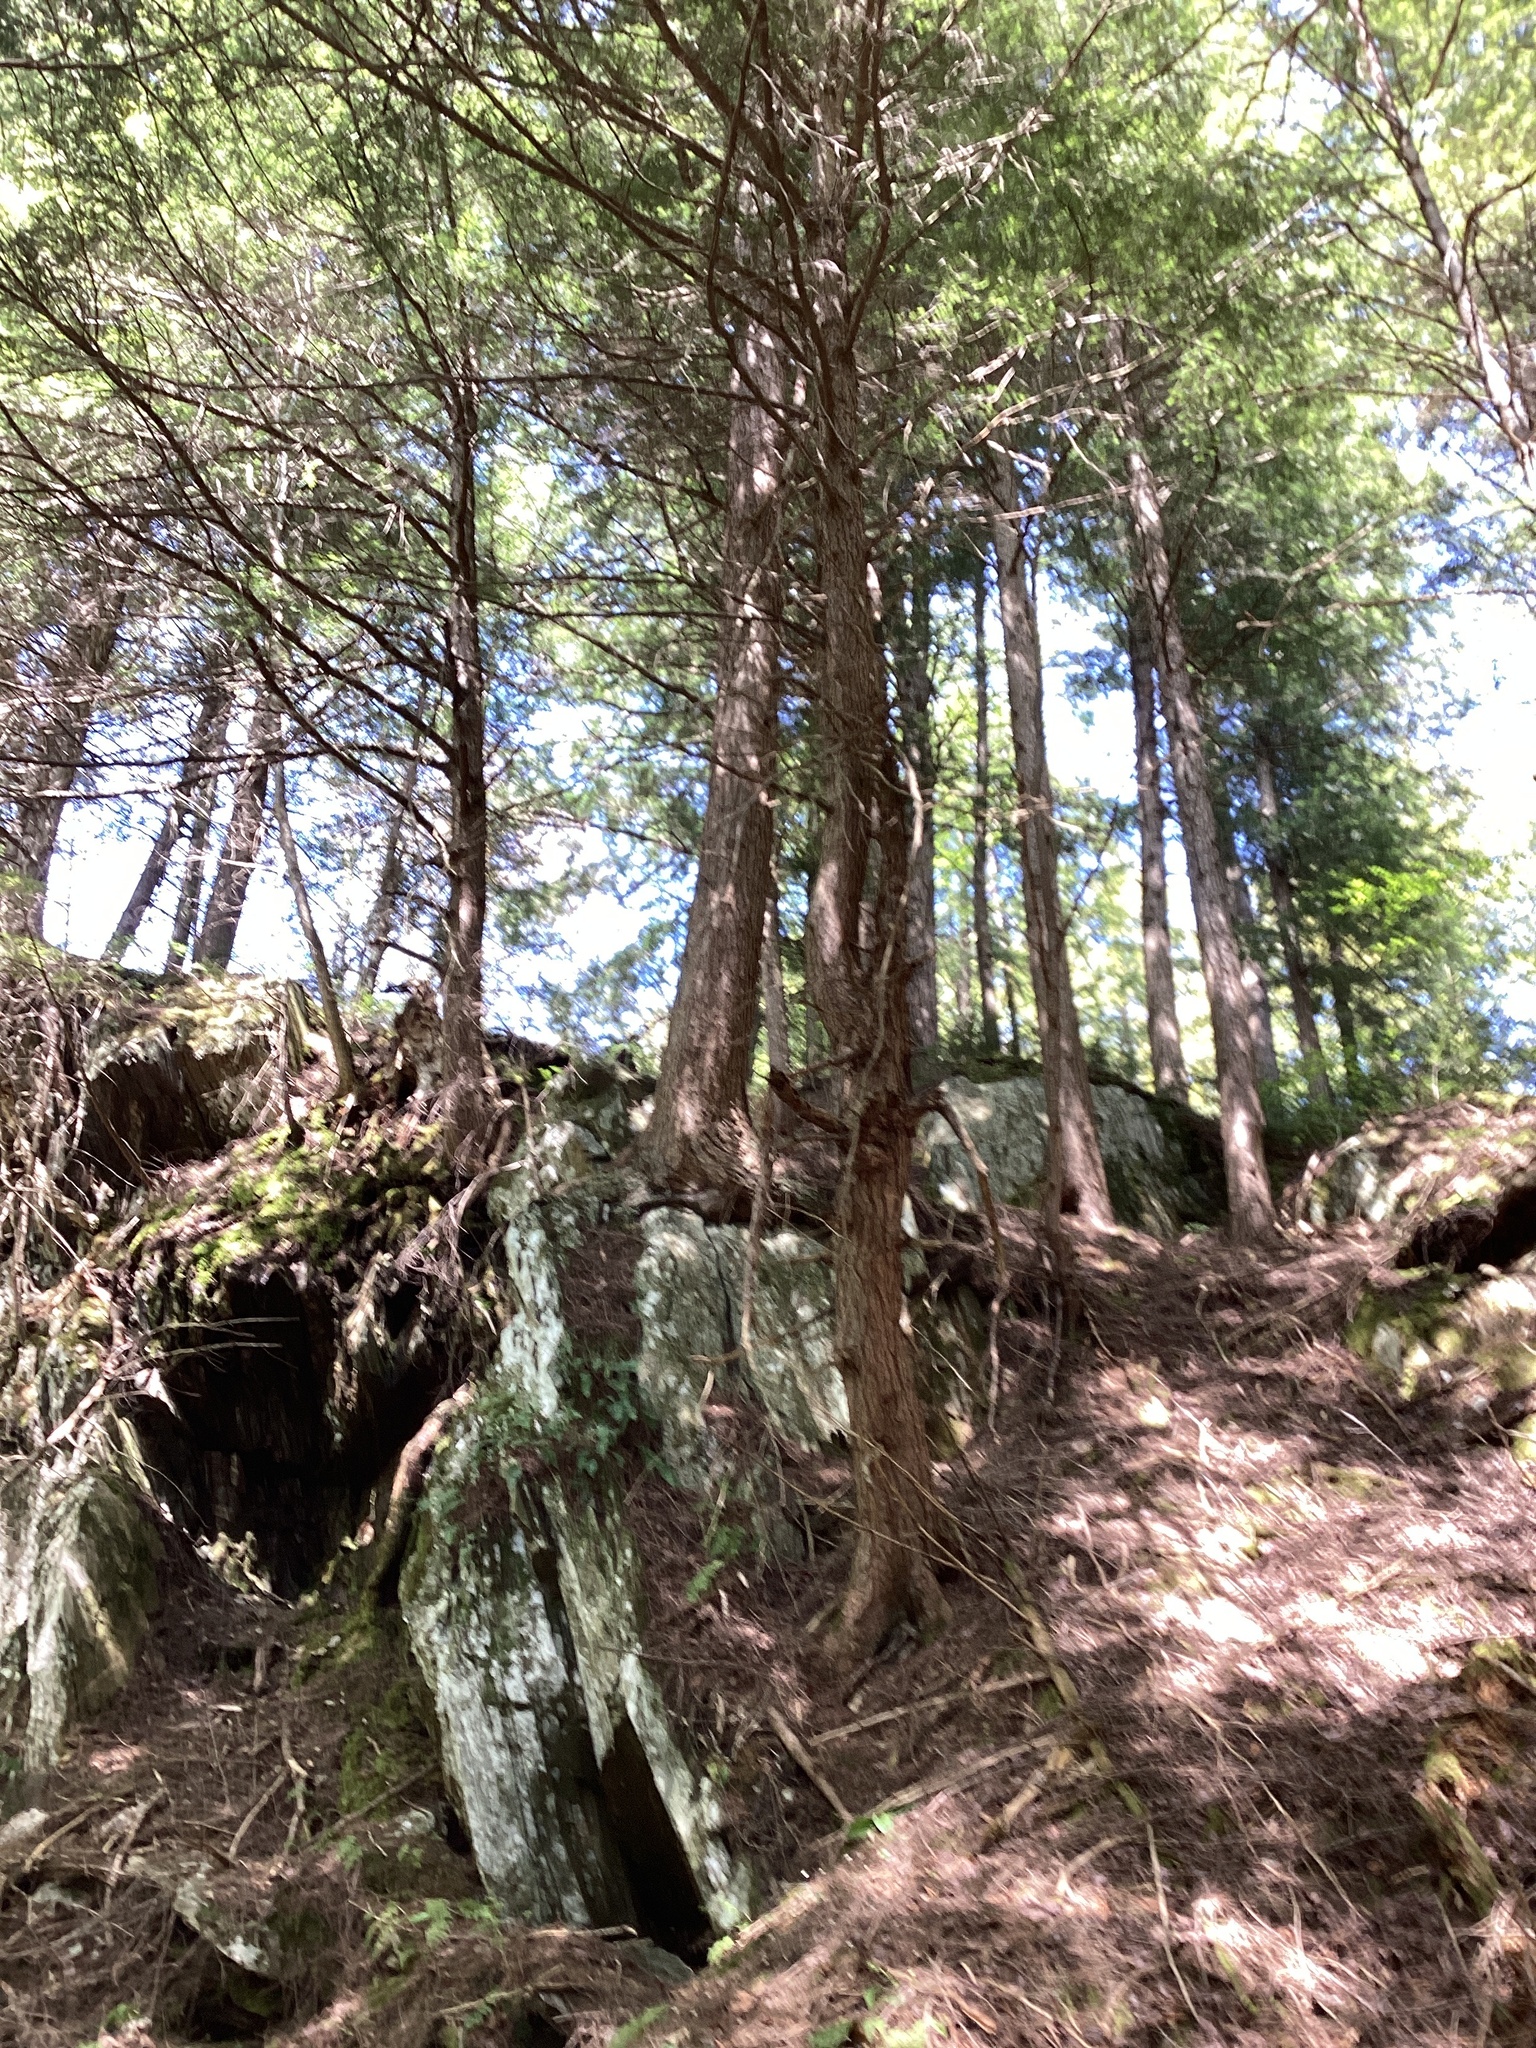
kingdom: Plantae
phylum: Tracheophyta
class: Pinopsida
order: Pinales
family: Pinaceae
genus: Tsuga
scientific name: Tsuga canadensis
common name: Eastern hemlock
